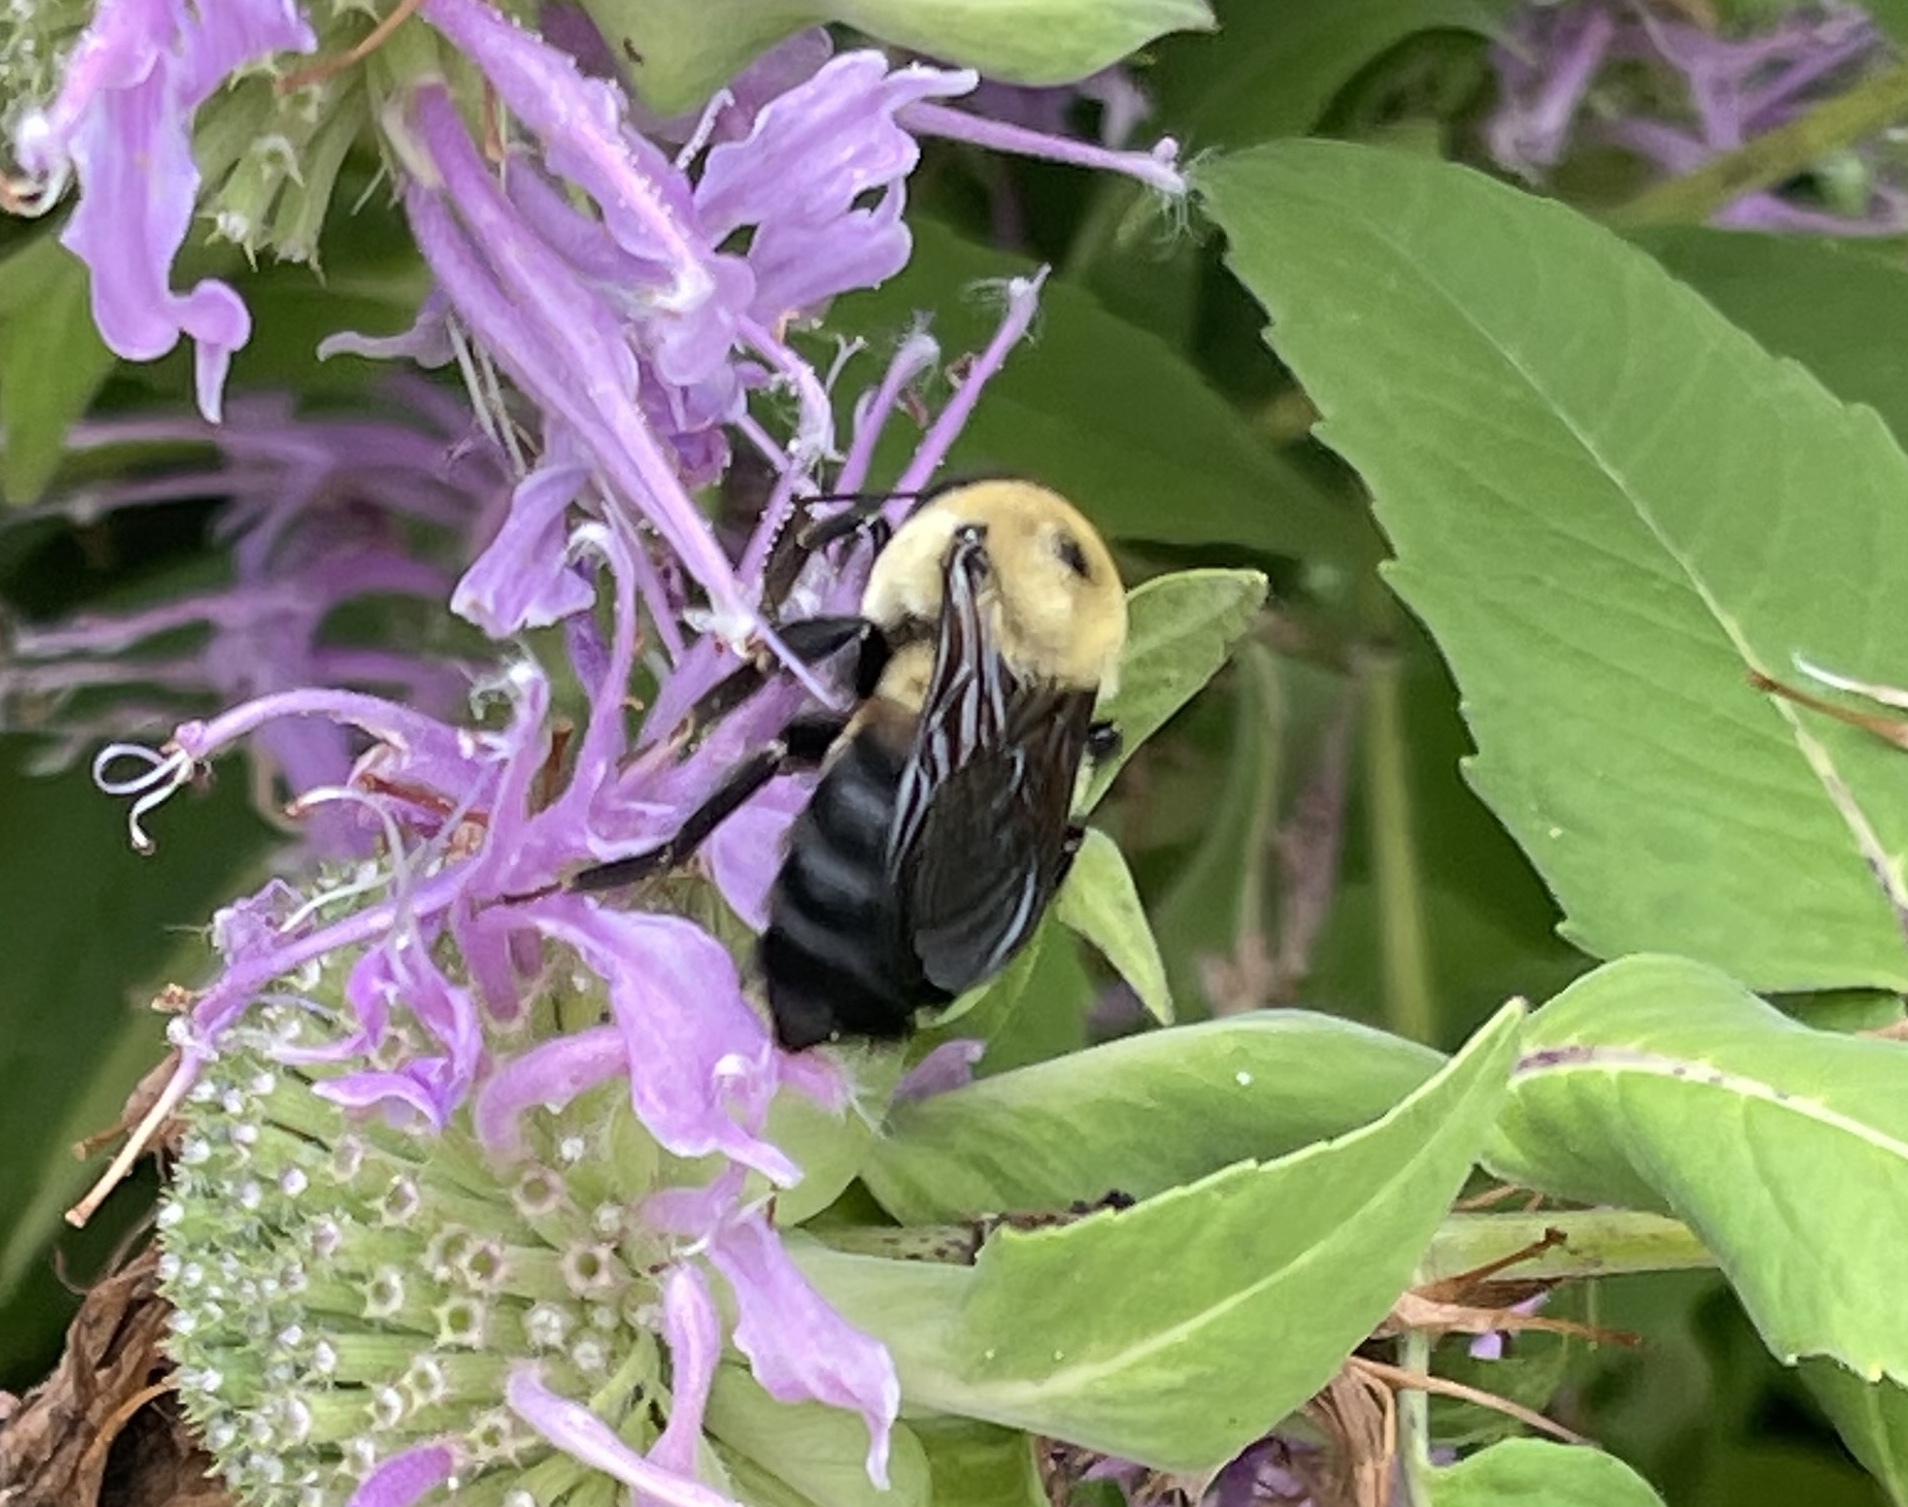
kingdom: Animalia
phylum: Arthropoda
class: Insecta
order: Hymenoptera
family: Apidae
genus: Bombus
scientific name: Bombus griseocollis
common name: Brown-belted bumble bee
